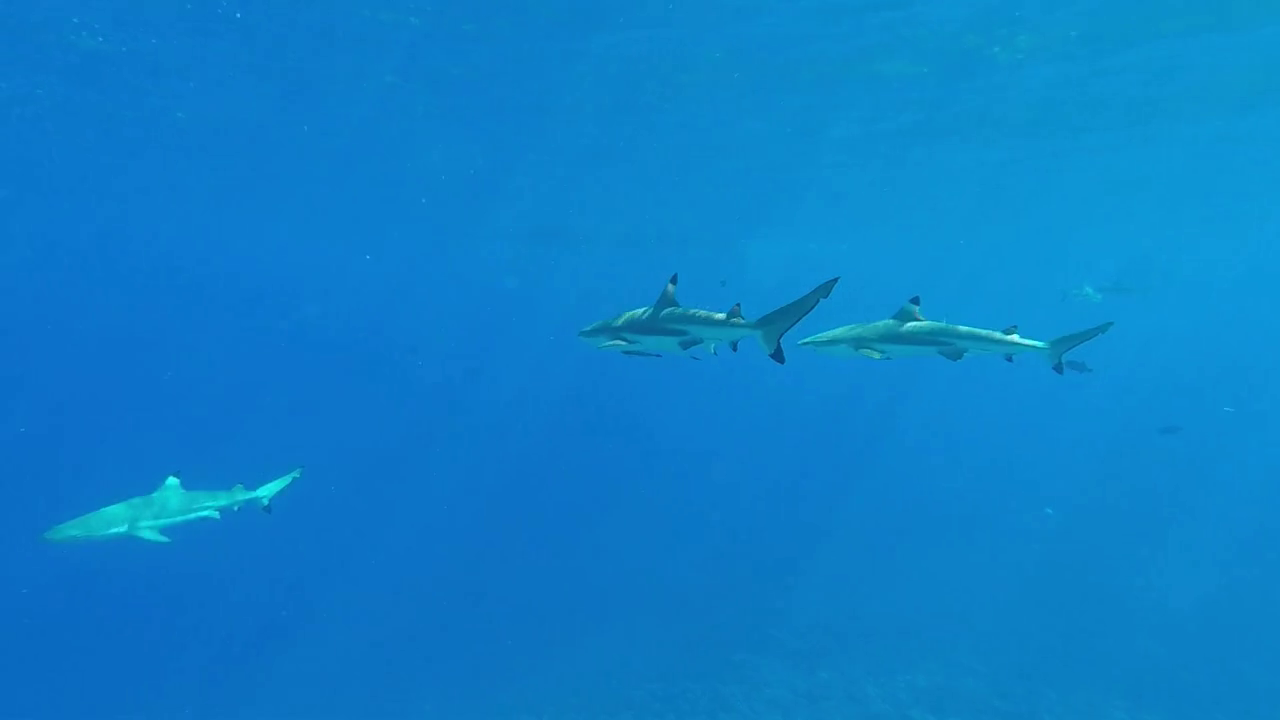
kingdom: Animalia
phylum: Chordata
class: Elasmobranchii
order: Carcharhiniformes
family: Carcharhinidae
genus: Carcharhinus
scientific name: Carcharhinus melanopterus
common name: Blacktip reef shark
